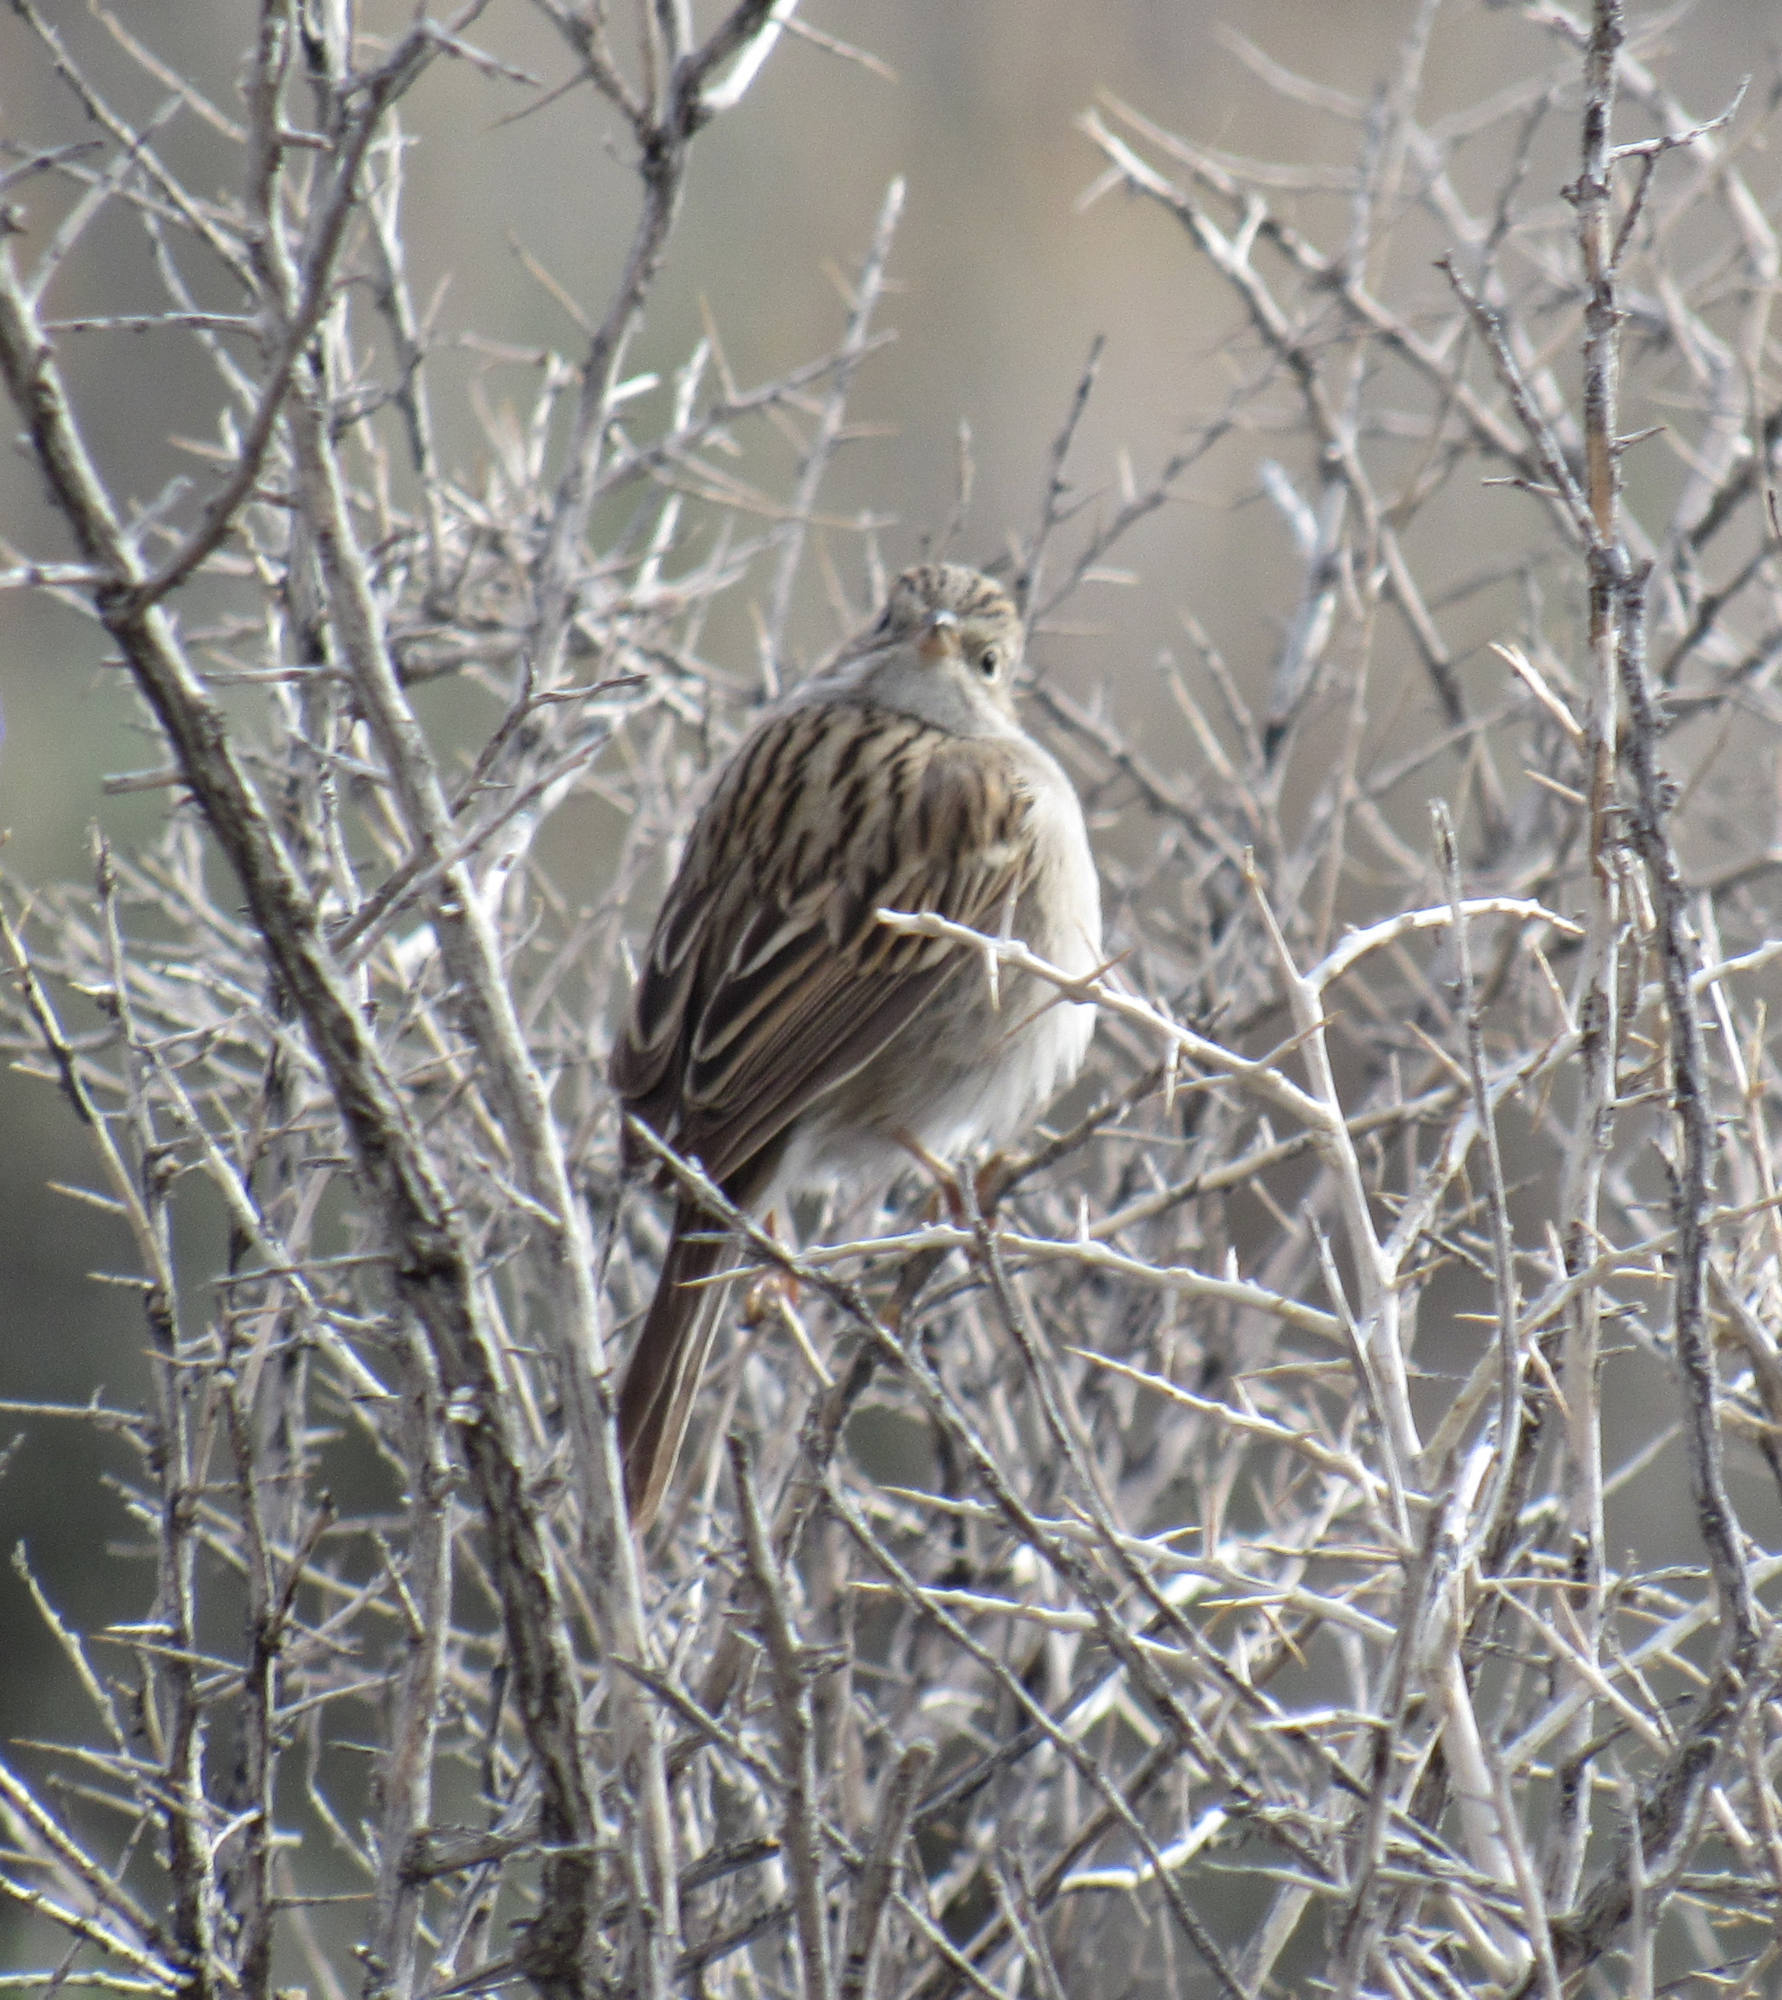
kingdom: Animalia
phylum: Chordata
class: Aves
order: Passeriformes
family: Passerellidae
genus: Spizella
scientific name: Spizella breweri
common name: Brewer's sparrow
